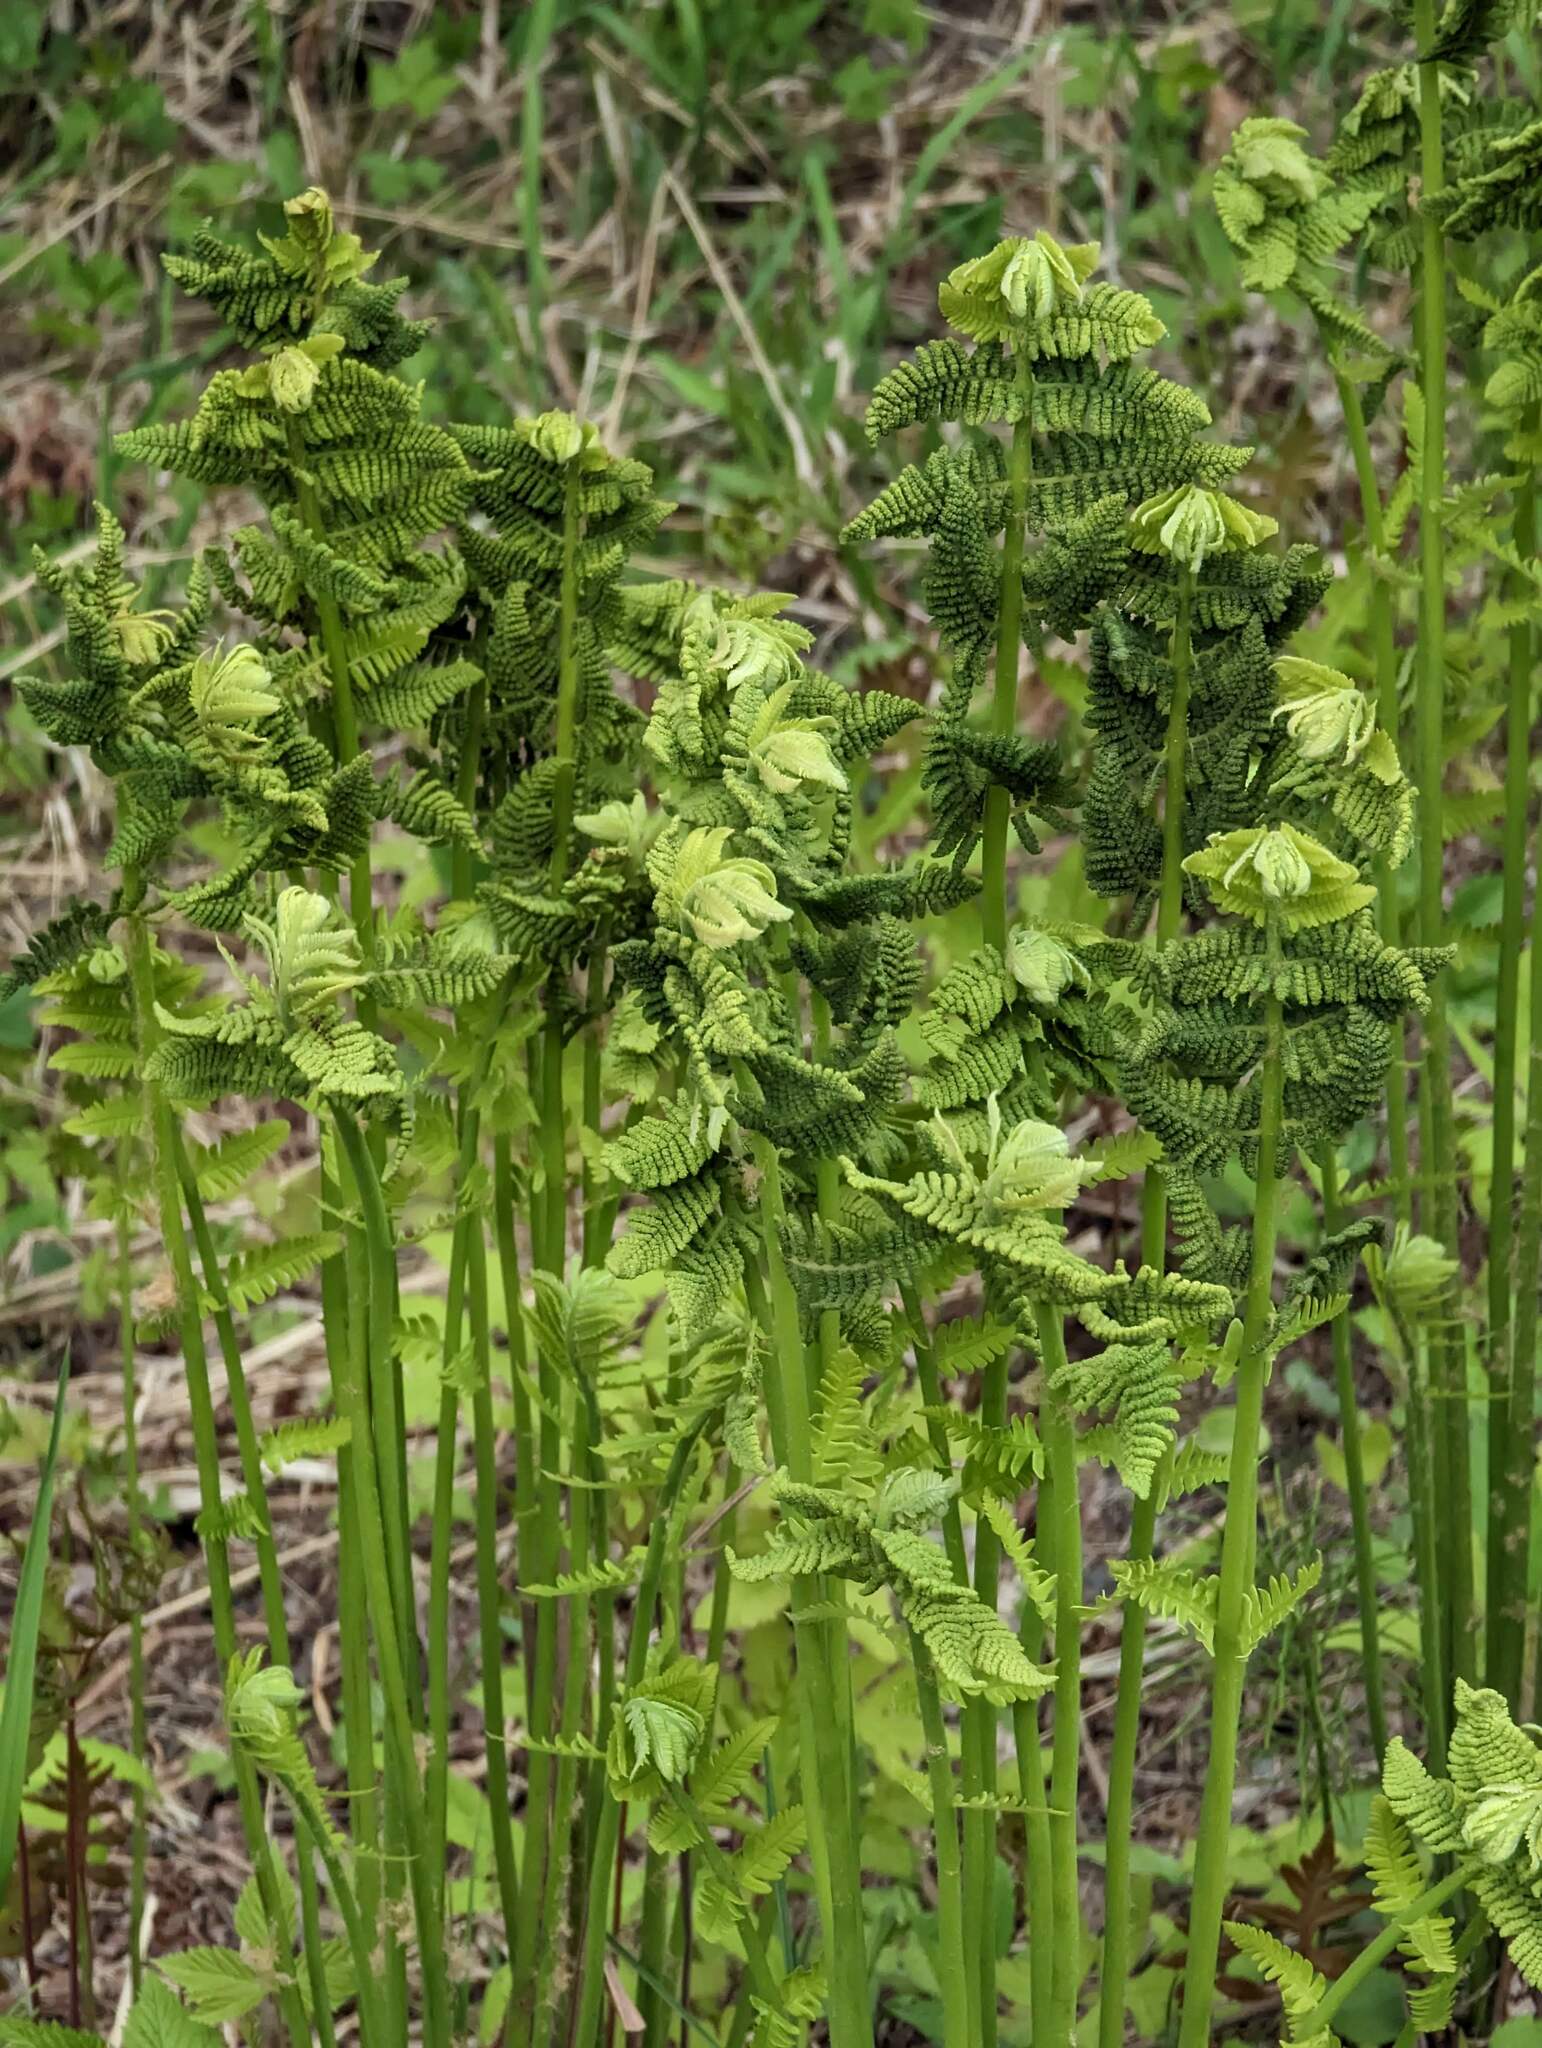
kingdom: Plantae
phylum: Tracheophyta
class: Polypodiopsida
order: Osmundales
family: Osmundaceae
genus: Claytosmunda
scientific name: Claytosmunda claytoniana
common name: Clayton's fern
